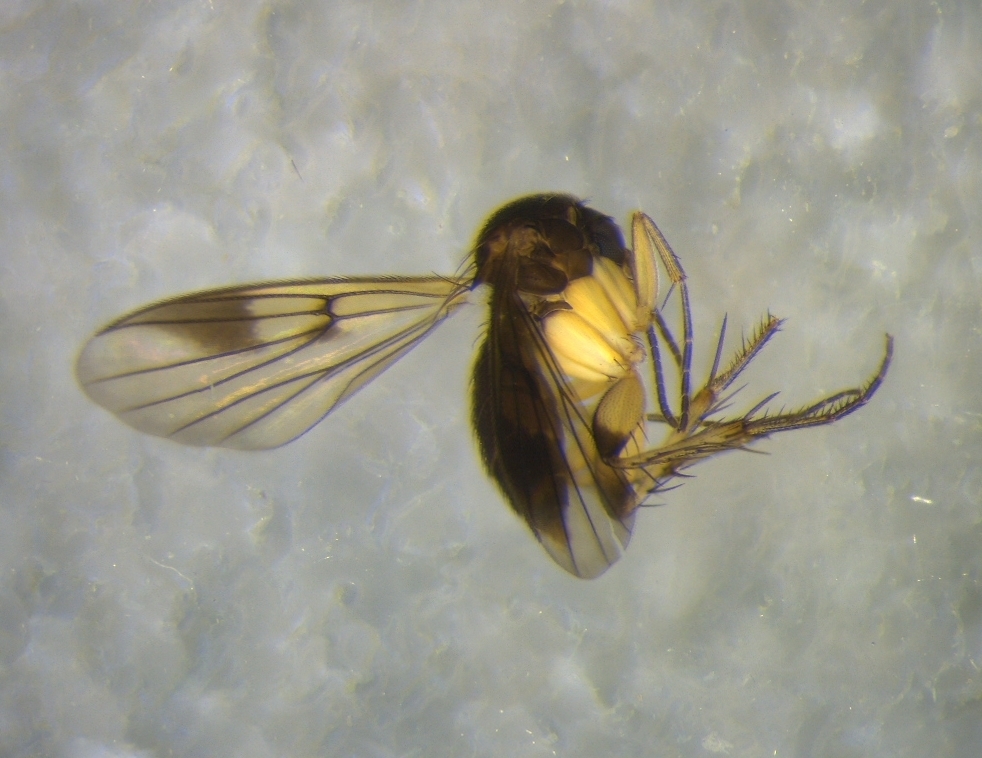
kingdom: Animalia
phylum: Arthropoda
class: Insecta
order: Diptera
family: Mycetophilidae
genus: Mycetophila
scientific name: Mycetophila nitens
